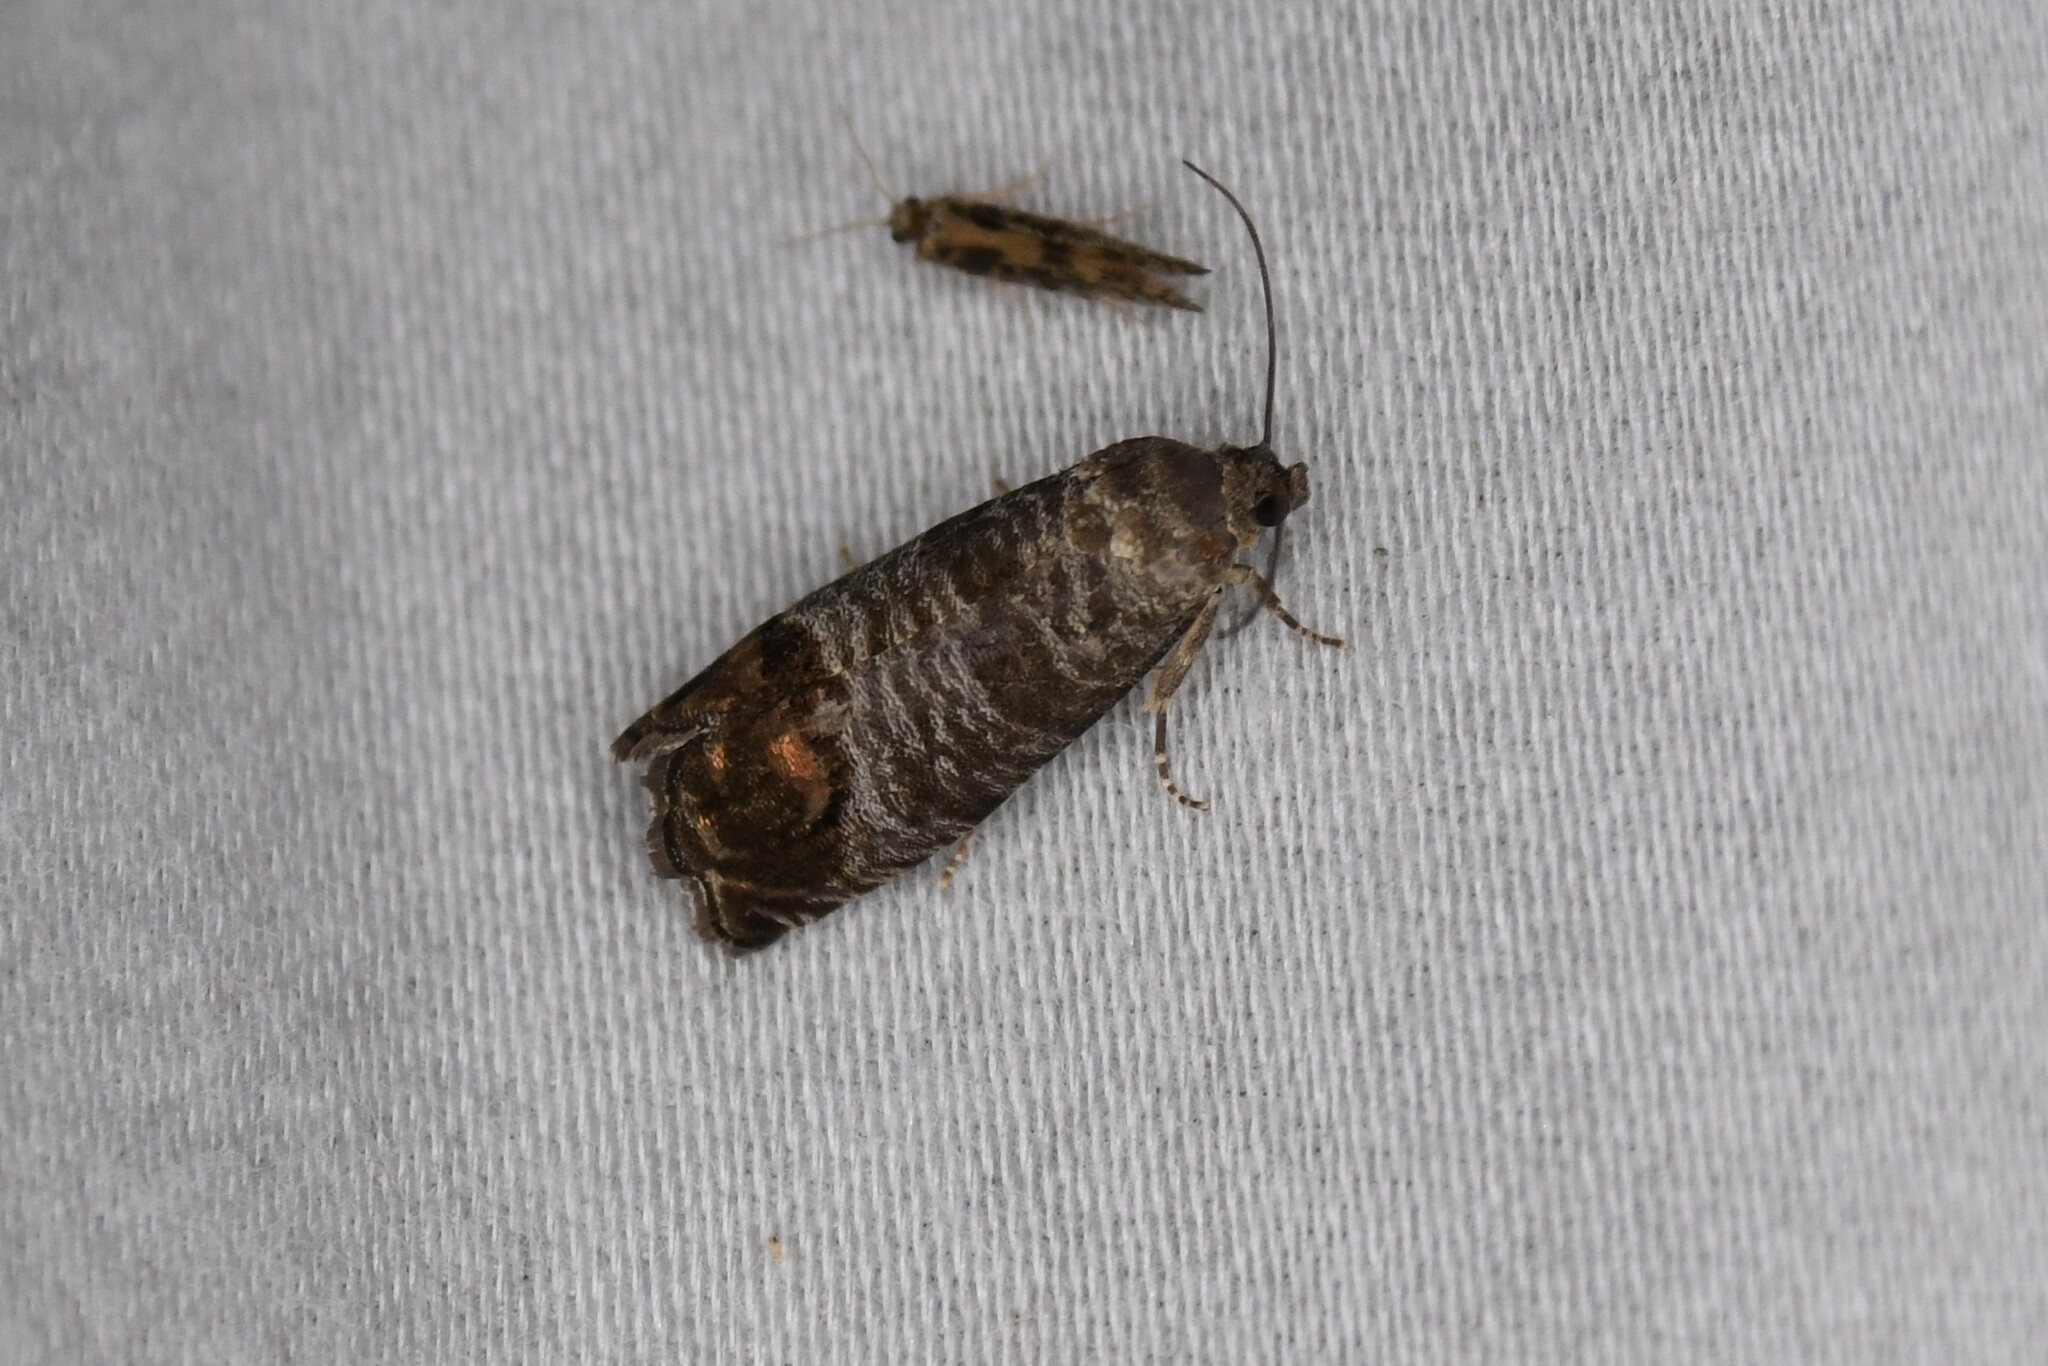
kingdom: Animalia
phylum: Arthropoda
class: Insecta
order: Lepidoptera
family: Tortricidae
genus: Cydia
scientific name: Cydia pomonella
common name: Codling moth
